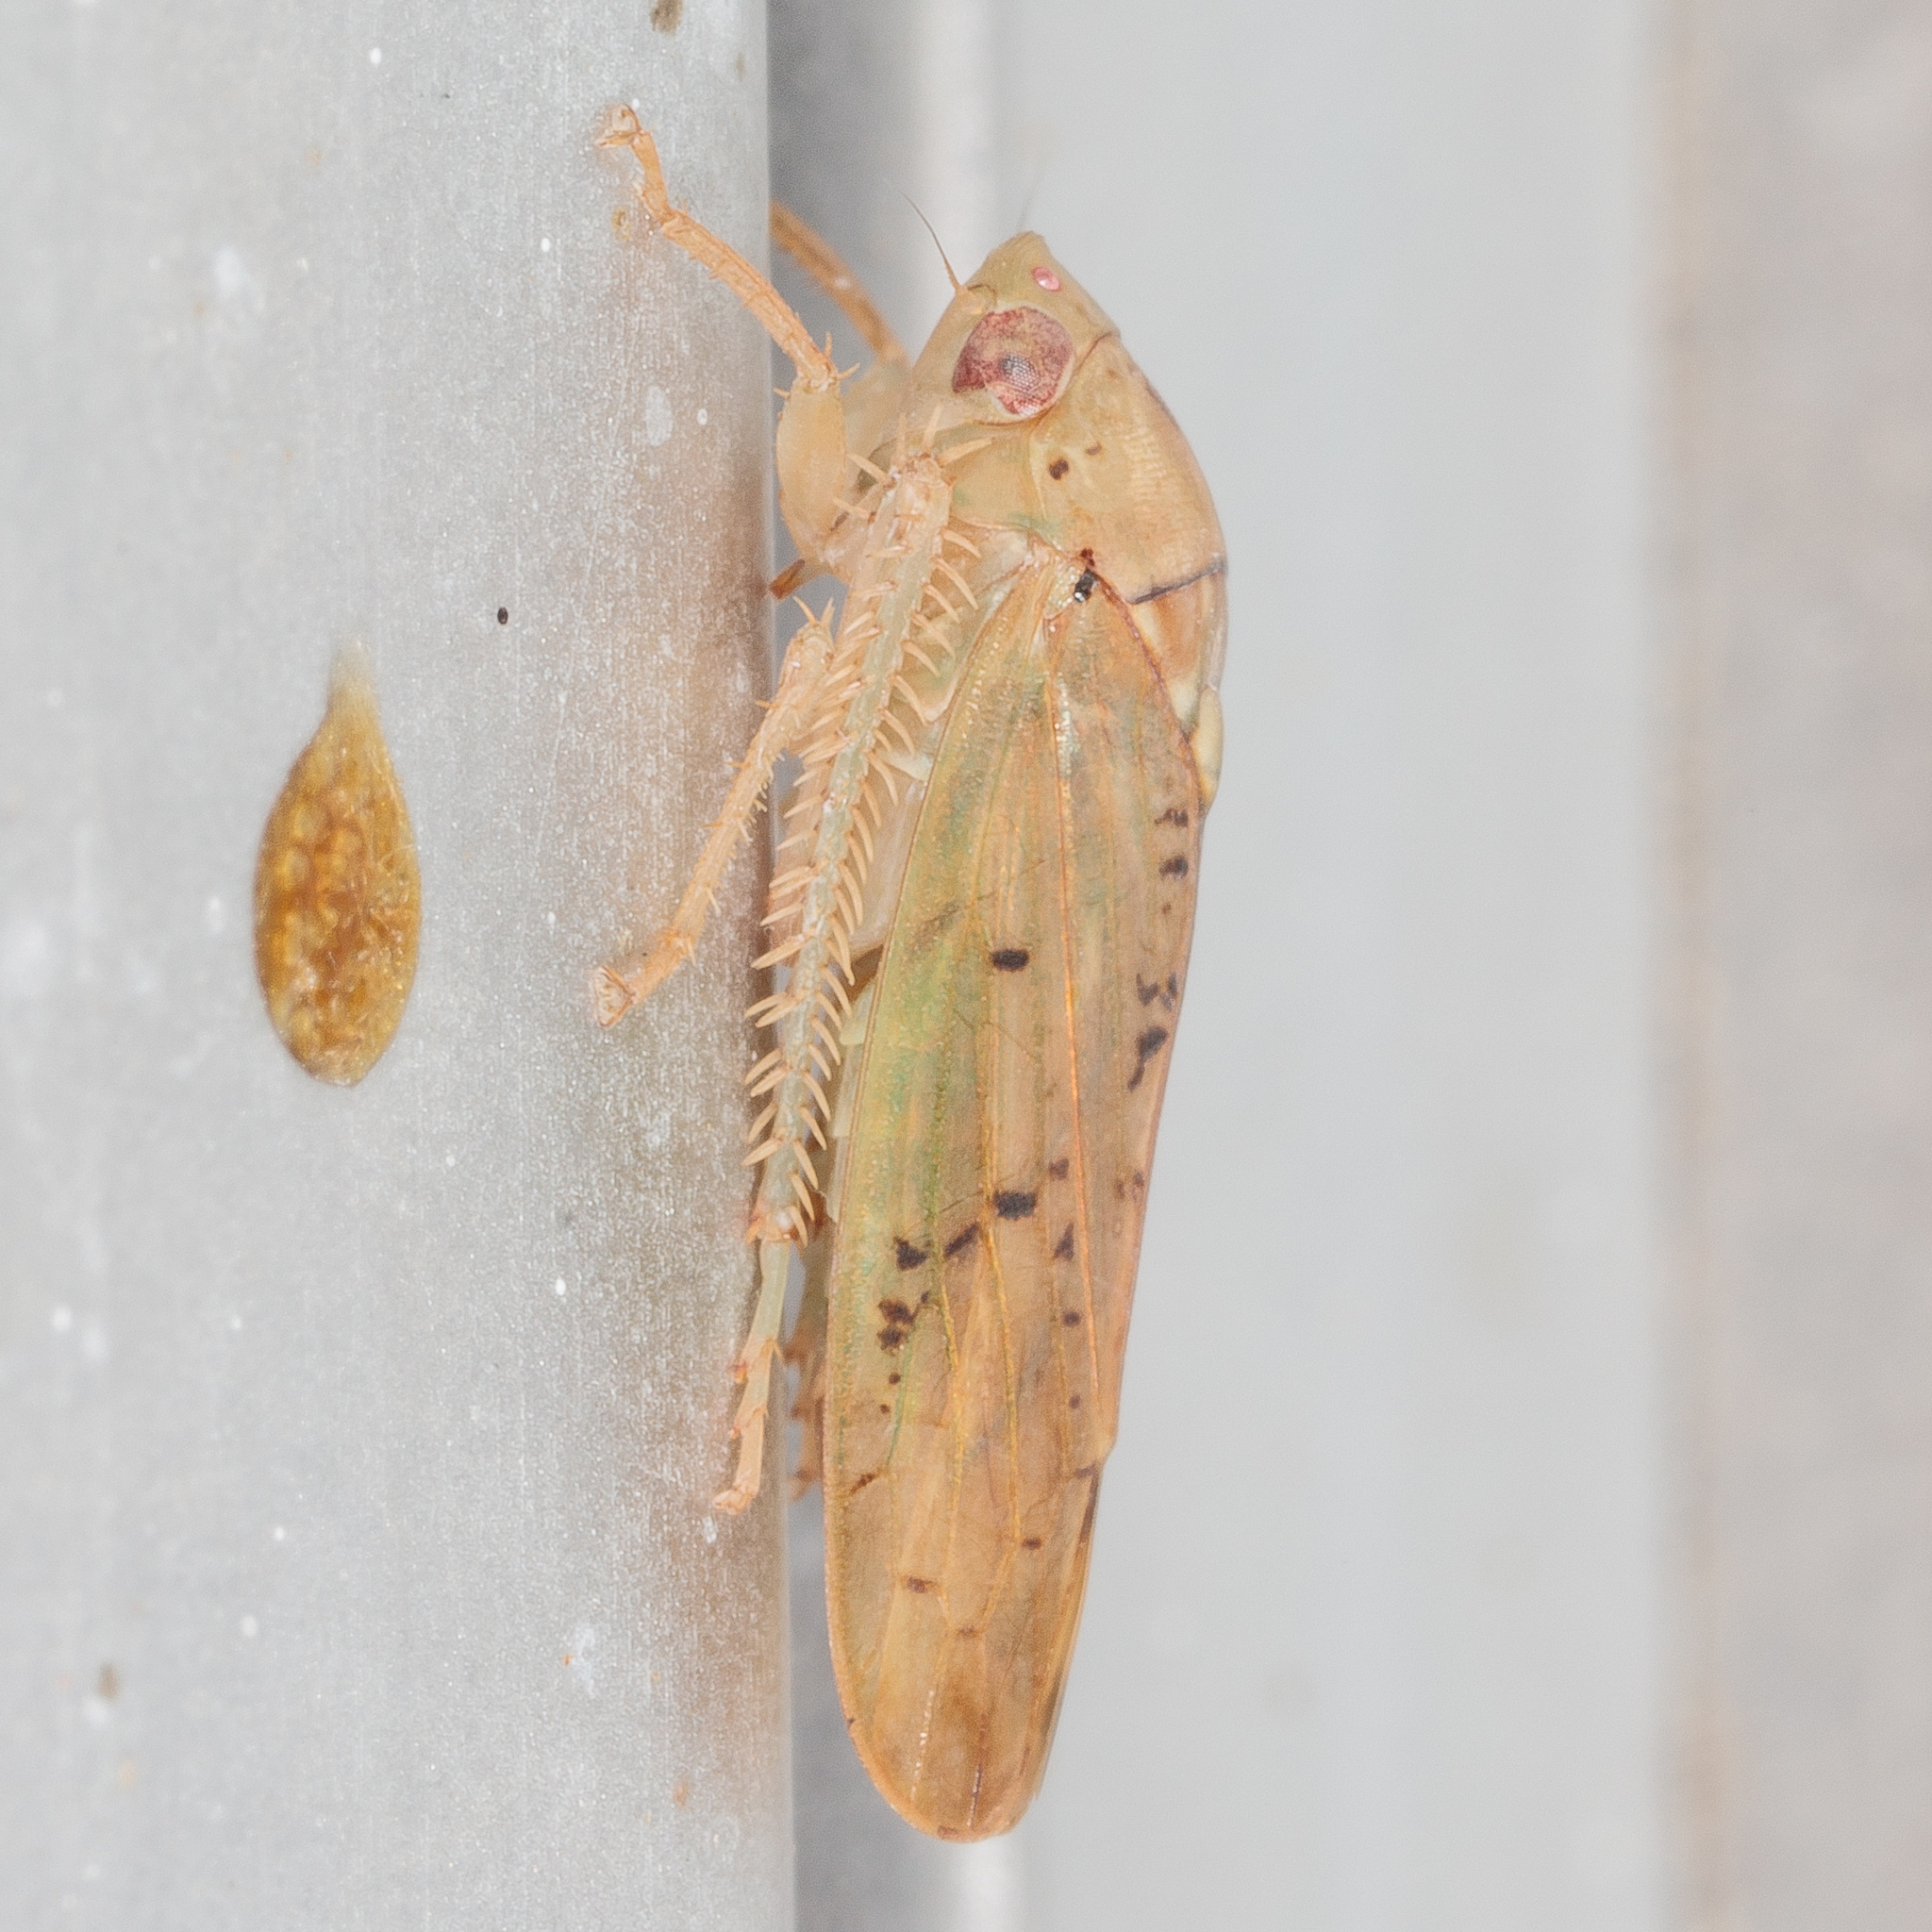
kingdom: Animalia
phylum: Arthropoda
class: Insecta
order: Hemiptera
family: Cicadellidae
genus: Ponana
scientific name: Ponana quadralaba
